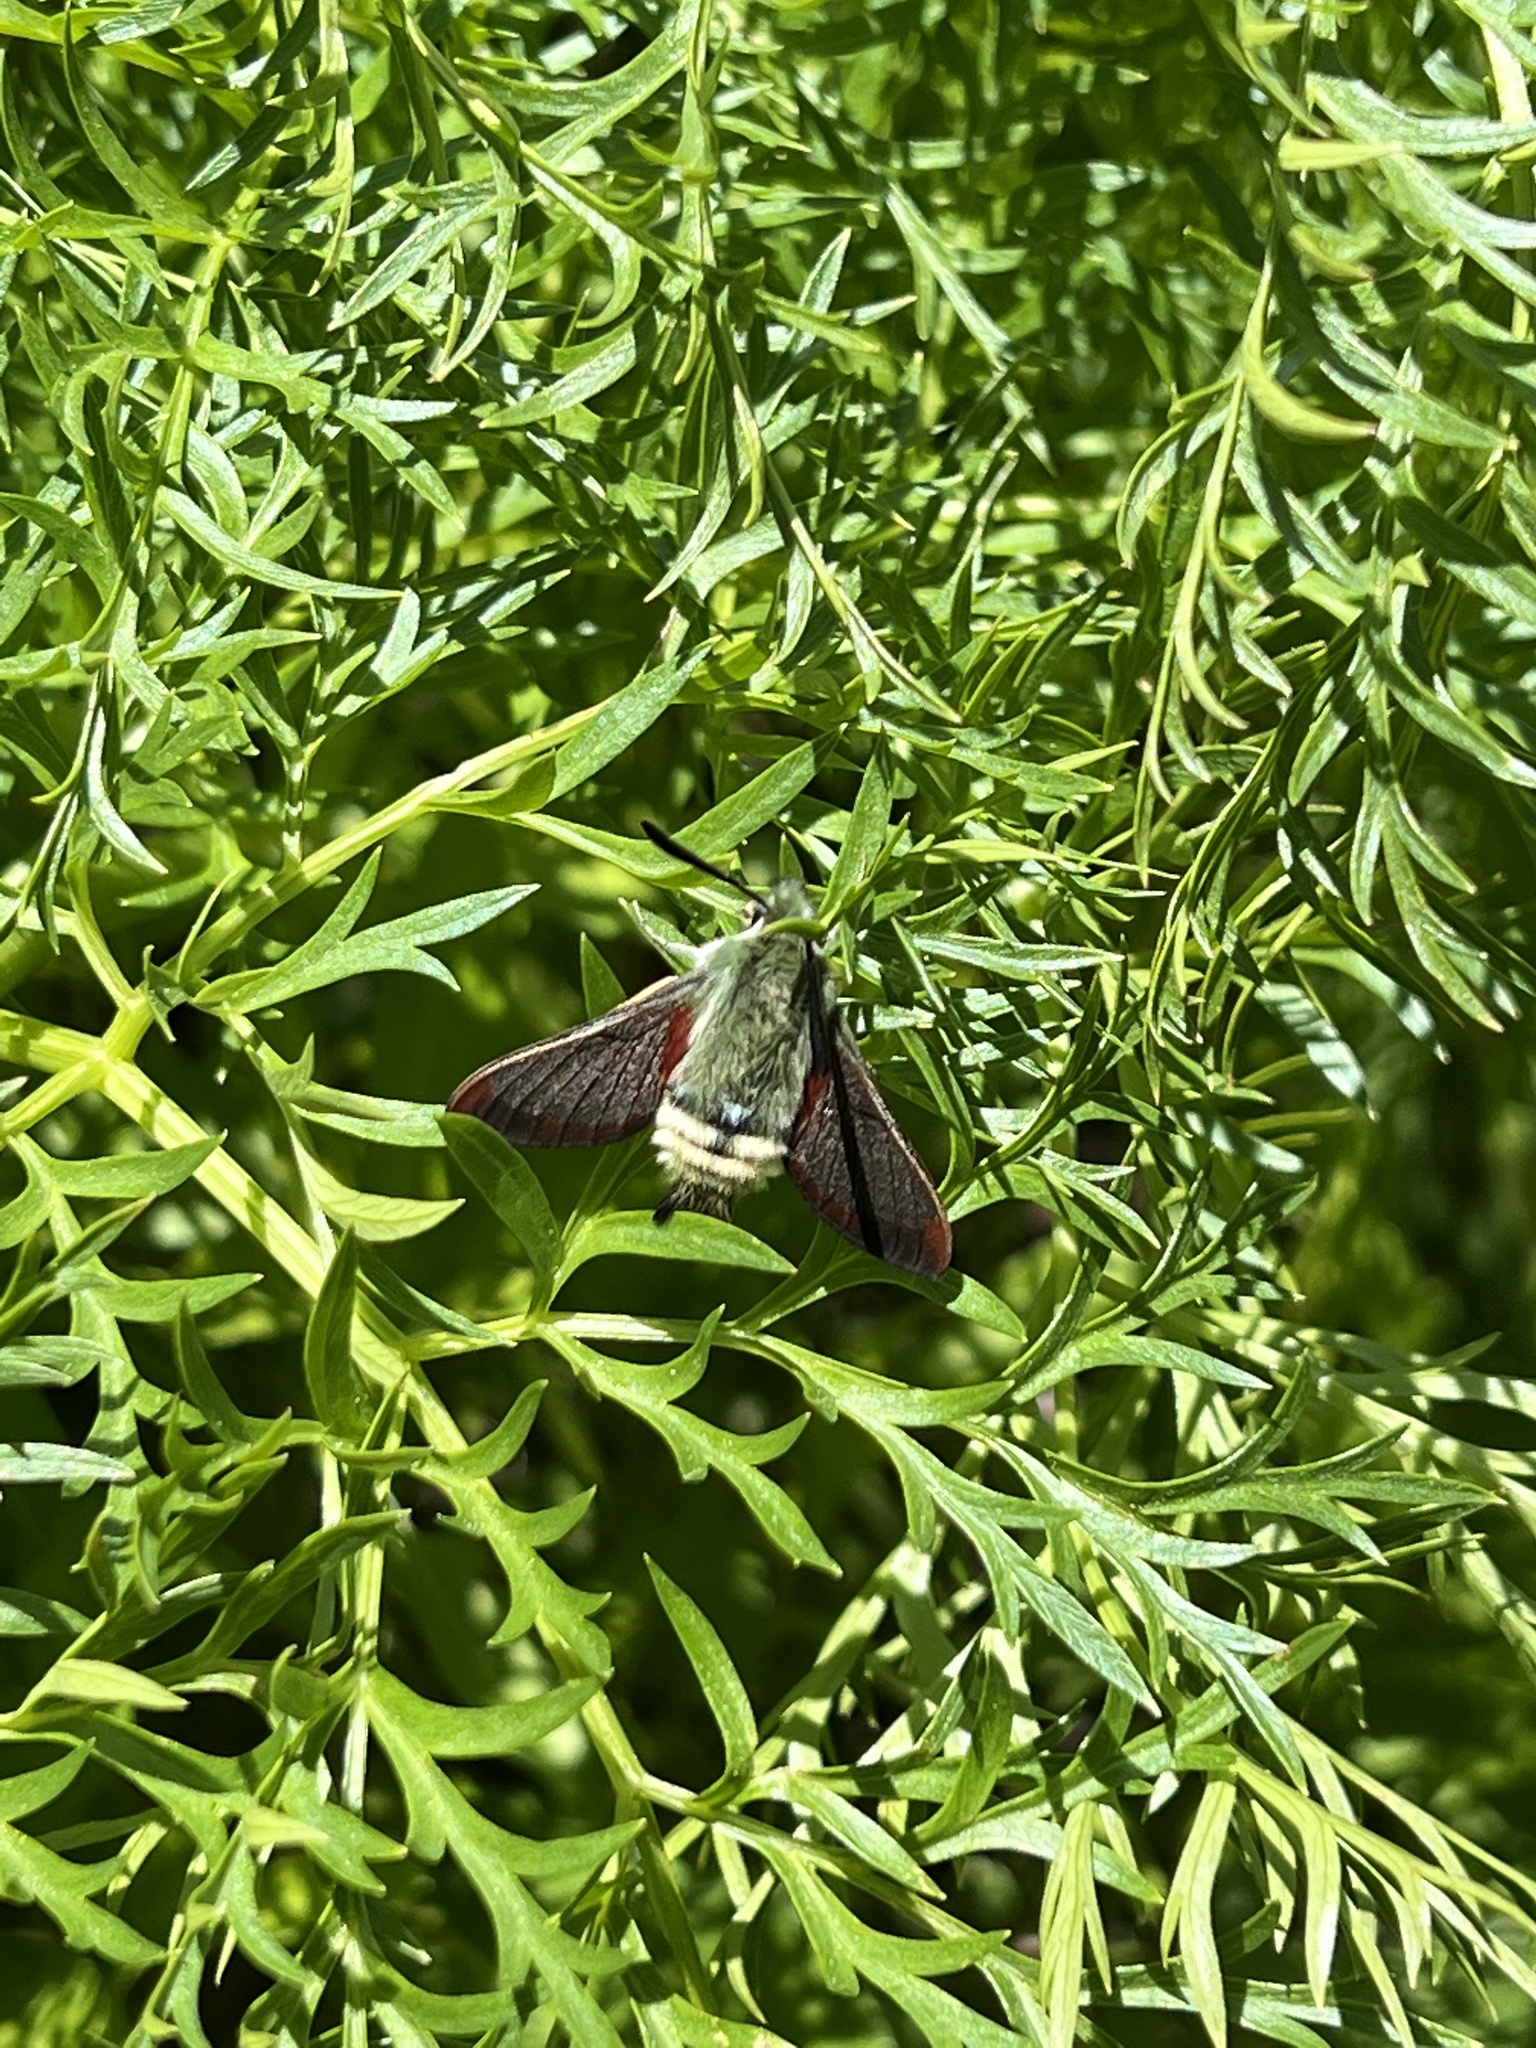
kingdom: Animalia
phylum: Arthropoda
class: Insecta
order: Lepidoptera
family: Sphingidae
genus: Hemaris
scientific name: Hemaris thetis
